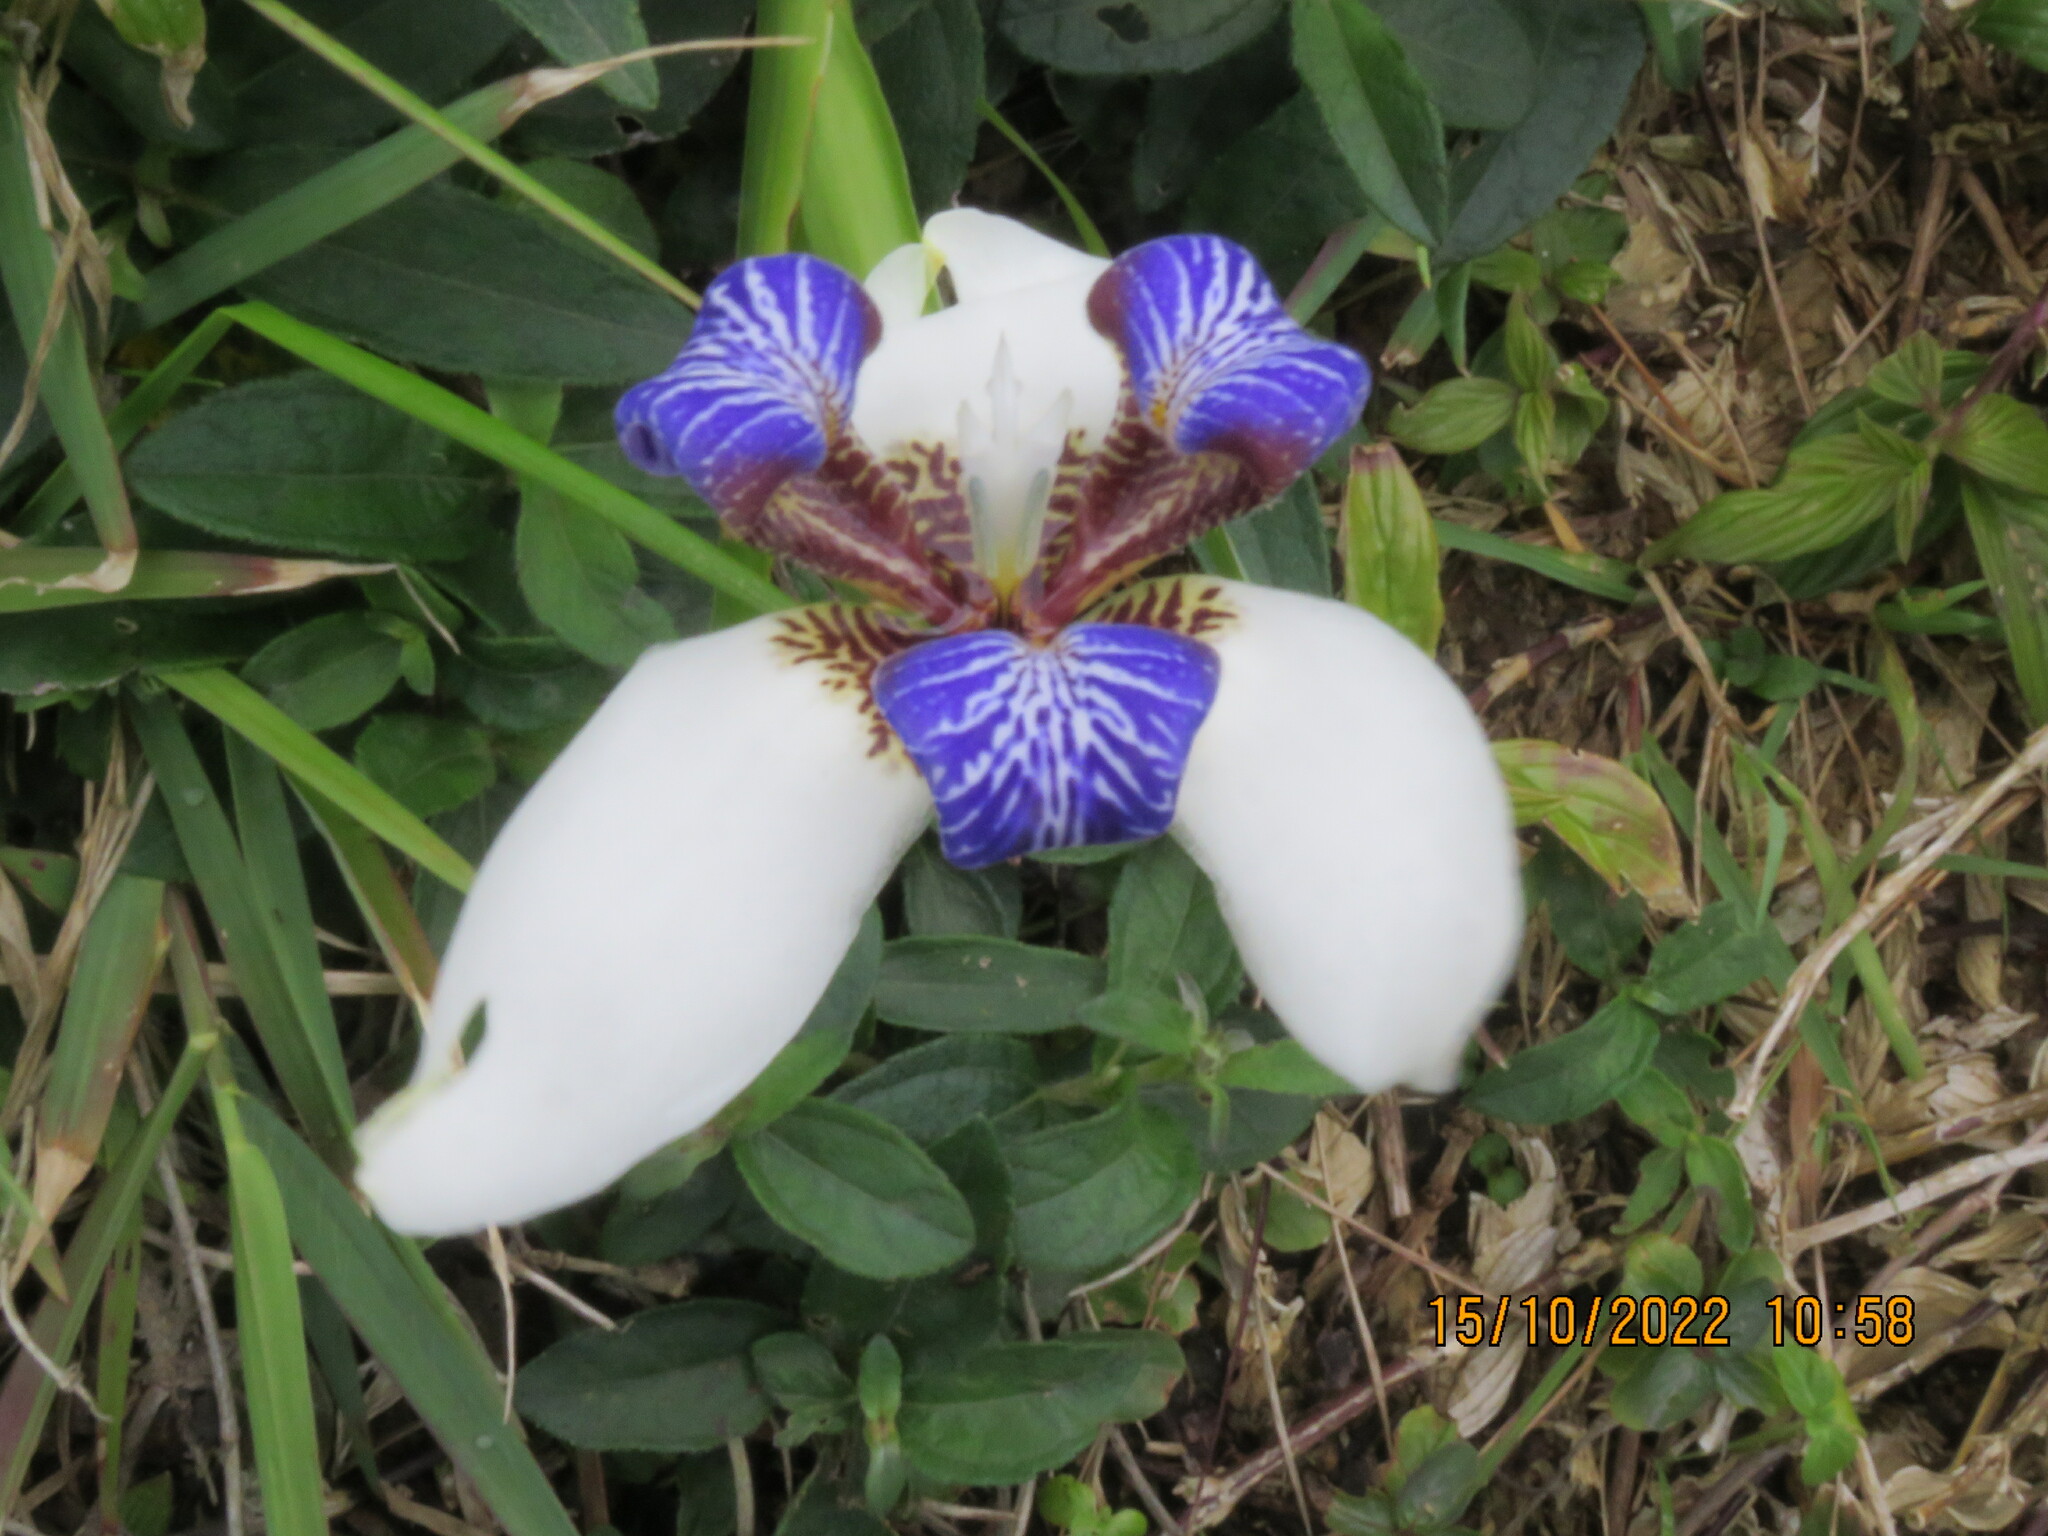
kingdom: Plantae
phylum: Tracheophyta
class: Liliopsida
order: Asparagales
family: Iridaceae
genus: Trimezia
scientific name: Trimezia candida
